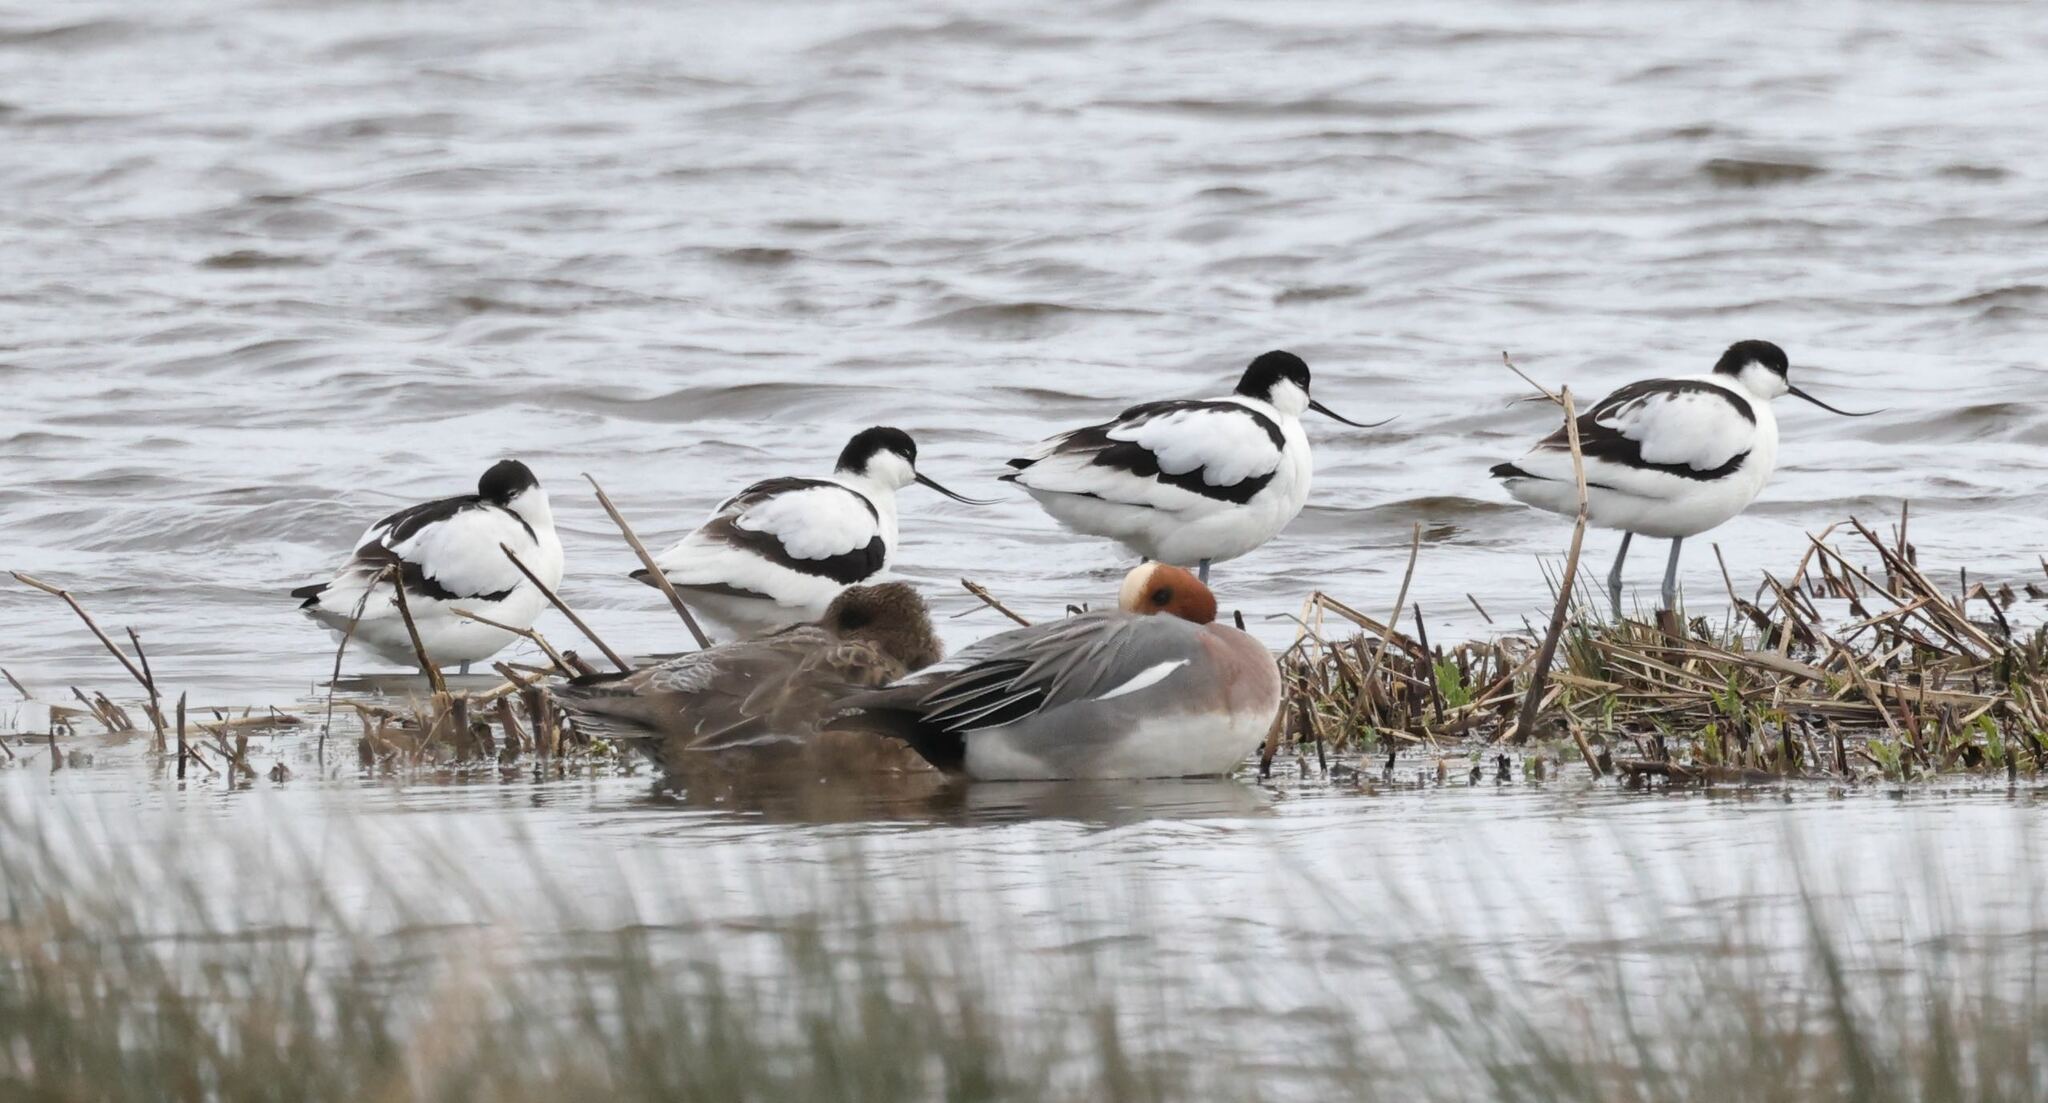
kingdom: Animalia
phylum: Chordata
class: Aves
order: Charadriiformes
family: Recurvirostridae
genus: Recurvirostra
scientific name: Recurvirostra avosetta
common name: Pied avocet
